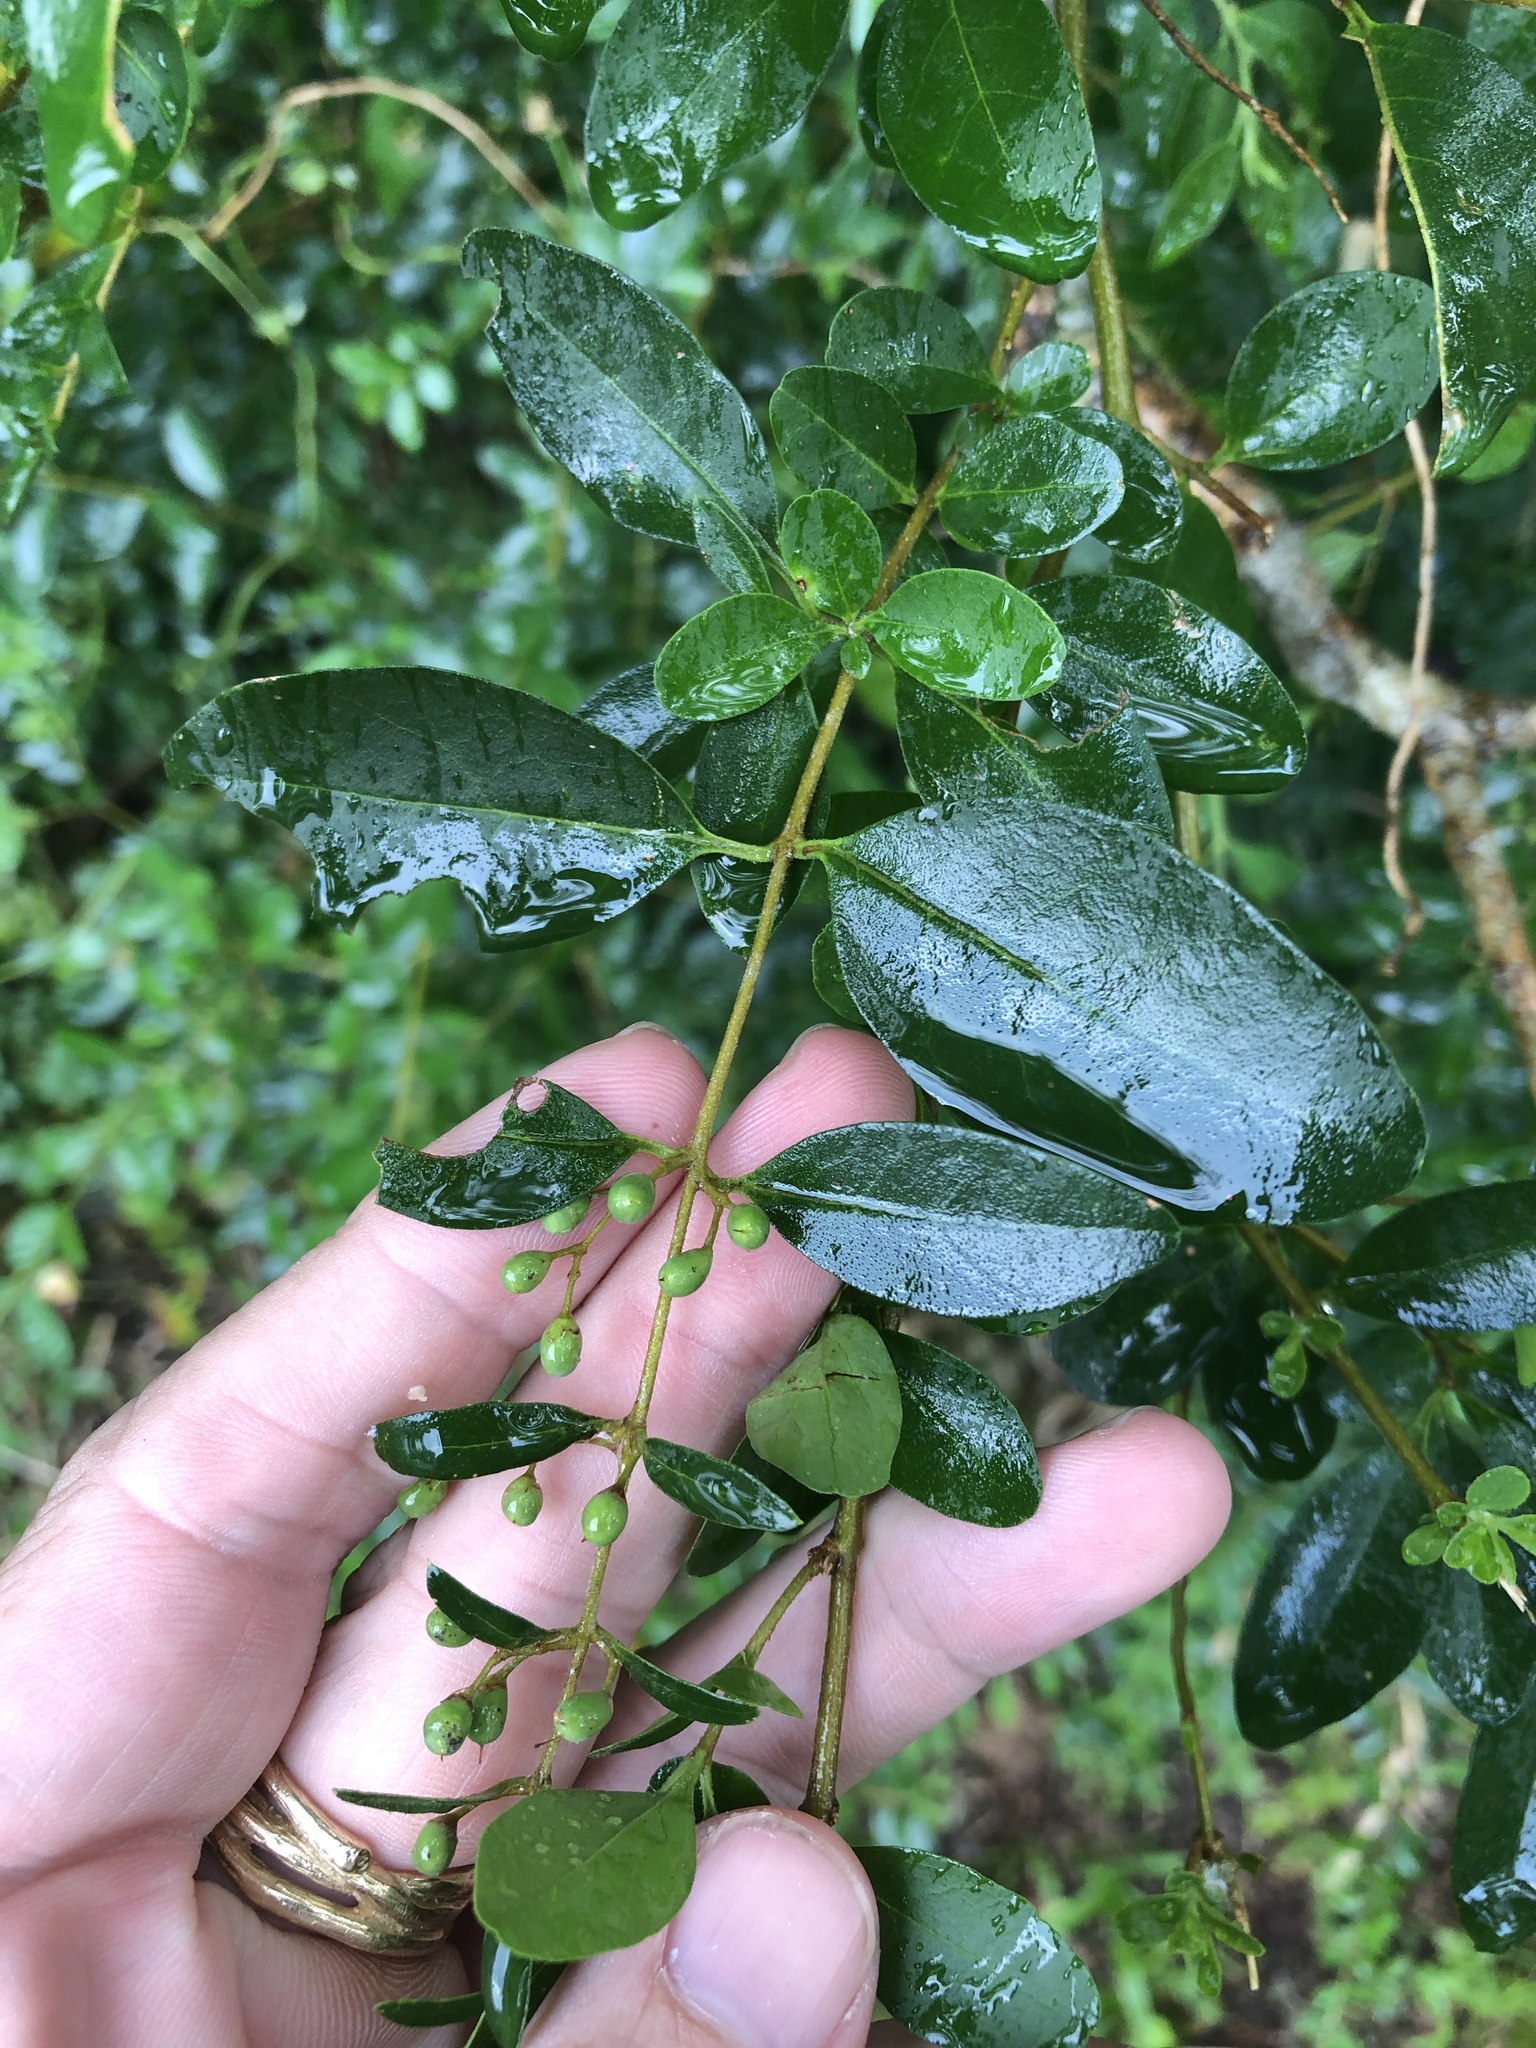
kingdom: Plantae
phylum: Tracheophyta
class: Magnoliopsida
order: Lamiales
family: Oleaceae
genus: Ligustrum
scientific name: Ligustrum sinense
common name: Chinese privet
